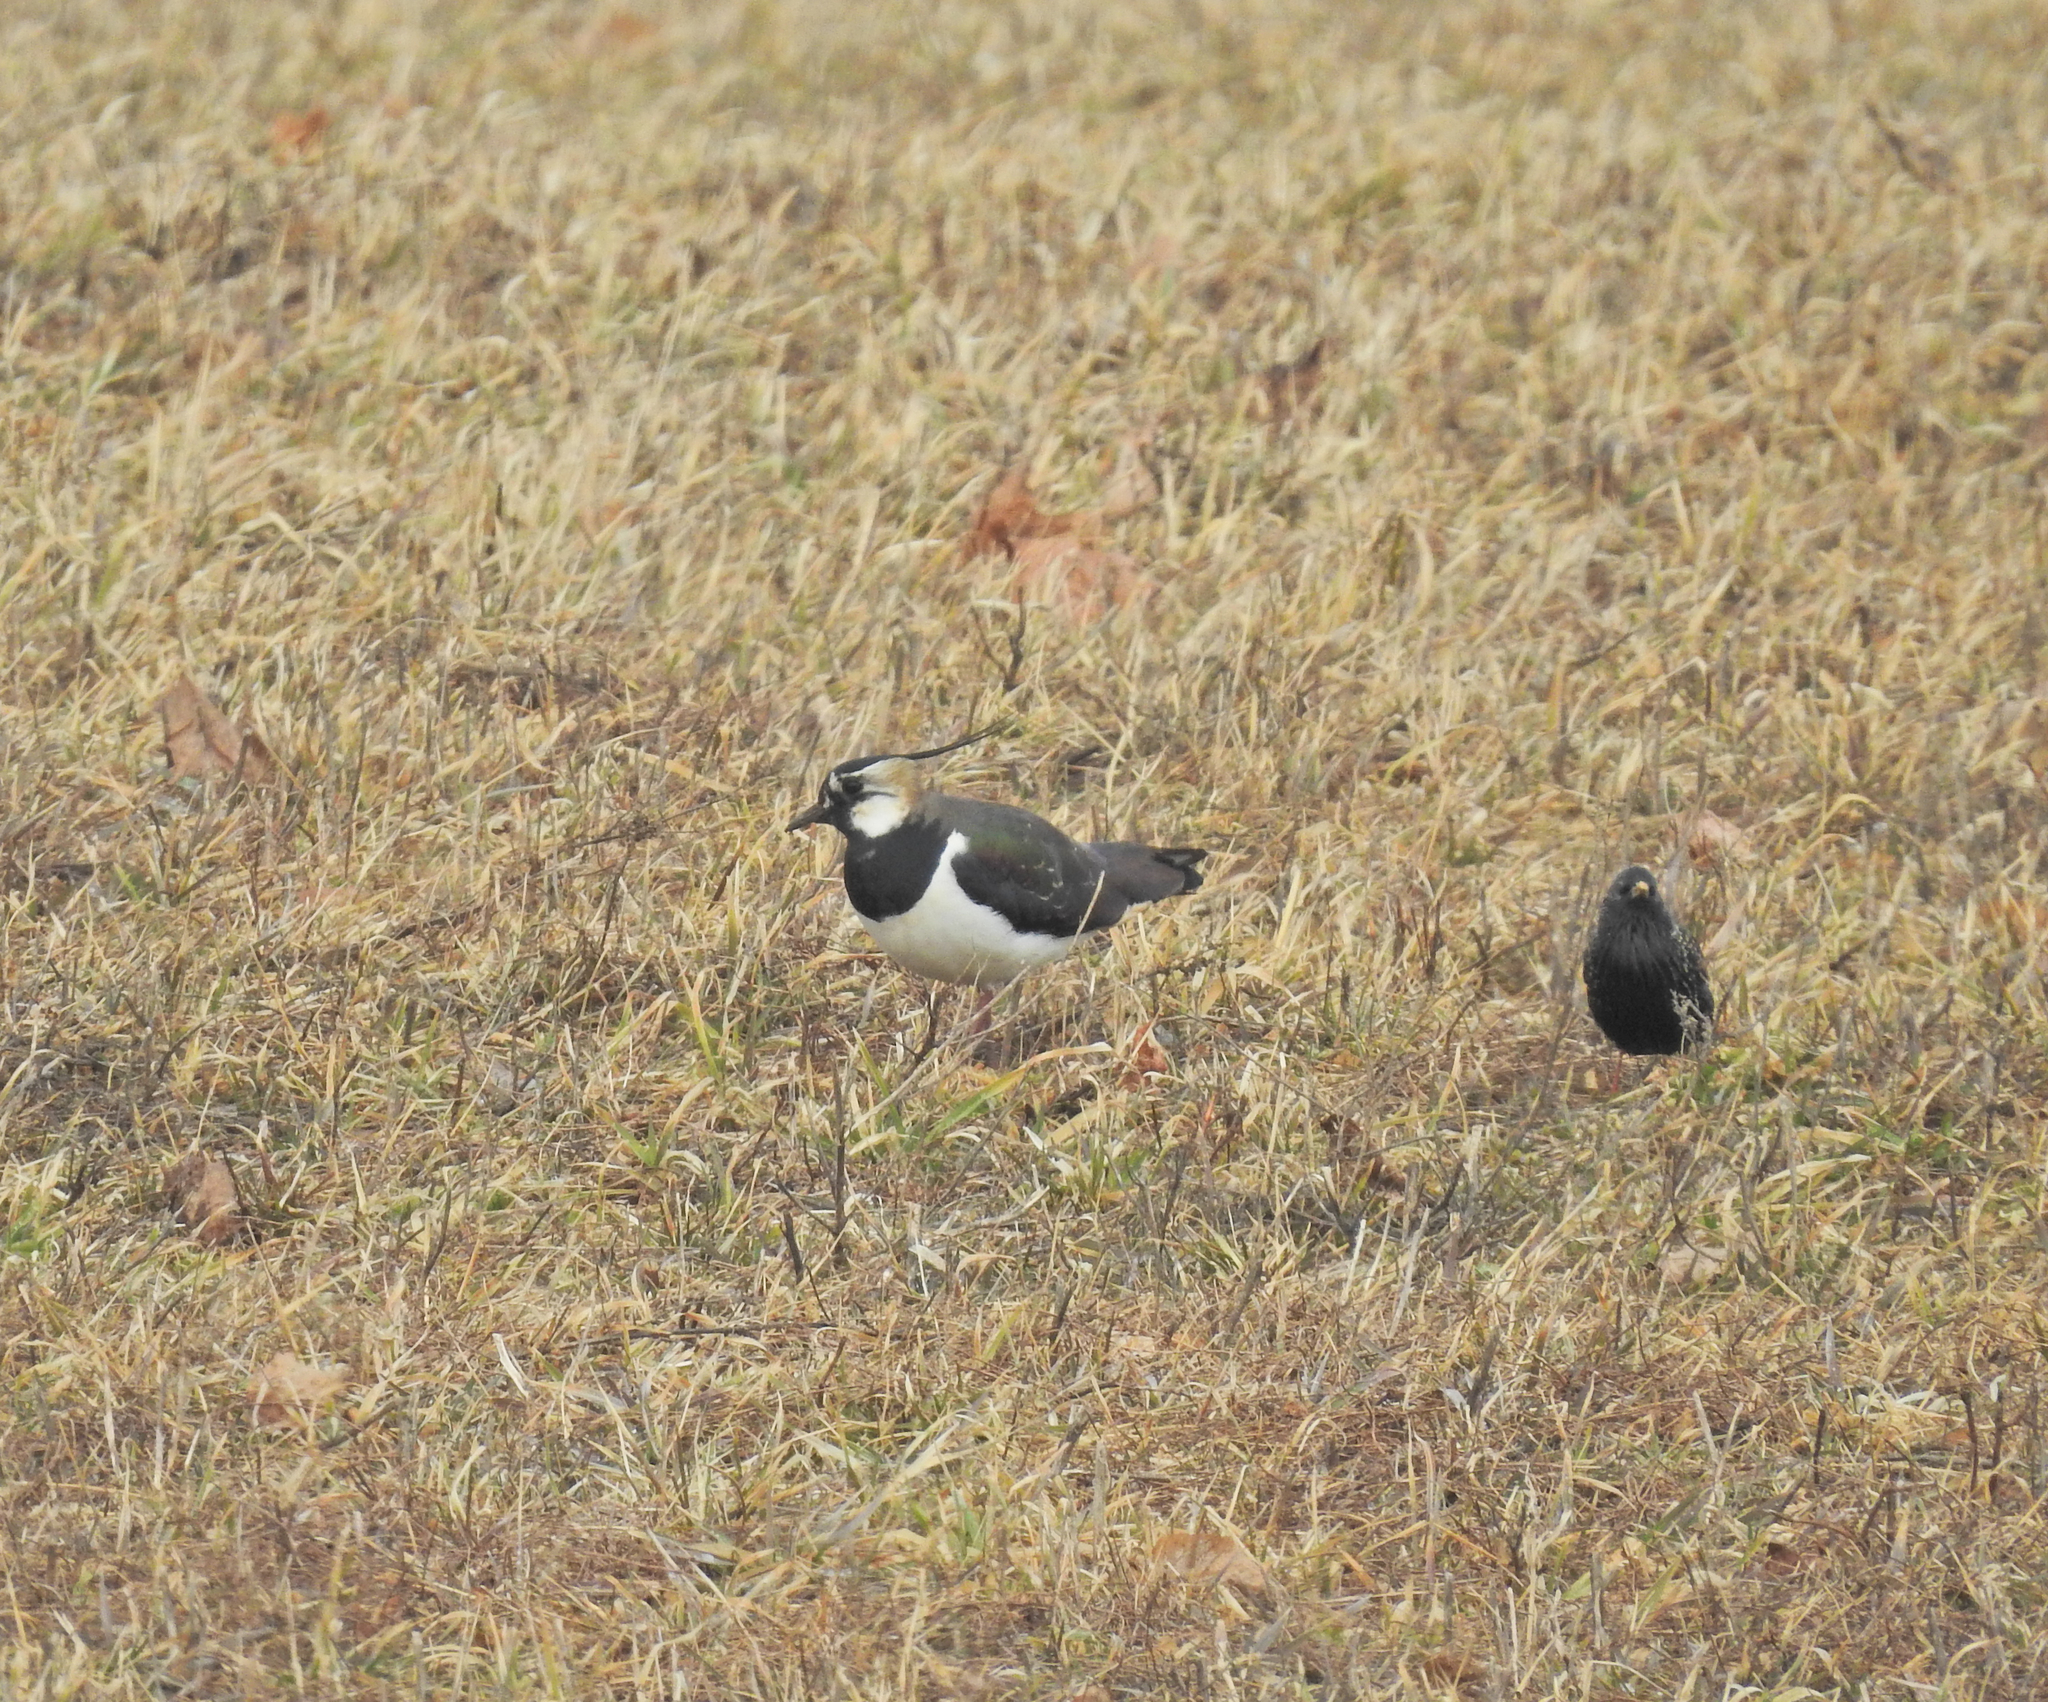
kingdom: Animalia
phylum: Chordata
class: Aves
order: Charadriiformes
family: Charadriidae
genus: Vanellus
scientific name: Vanellus vanellus
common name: Northern lapwing
